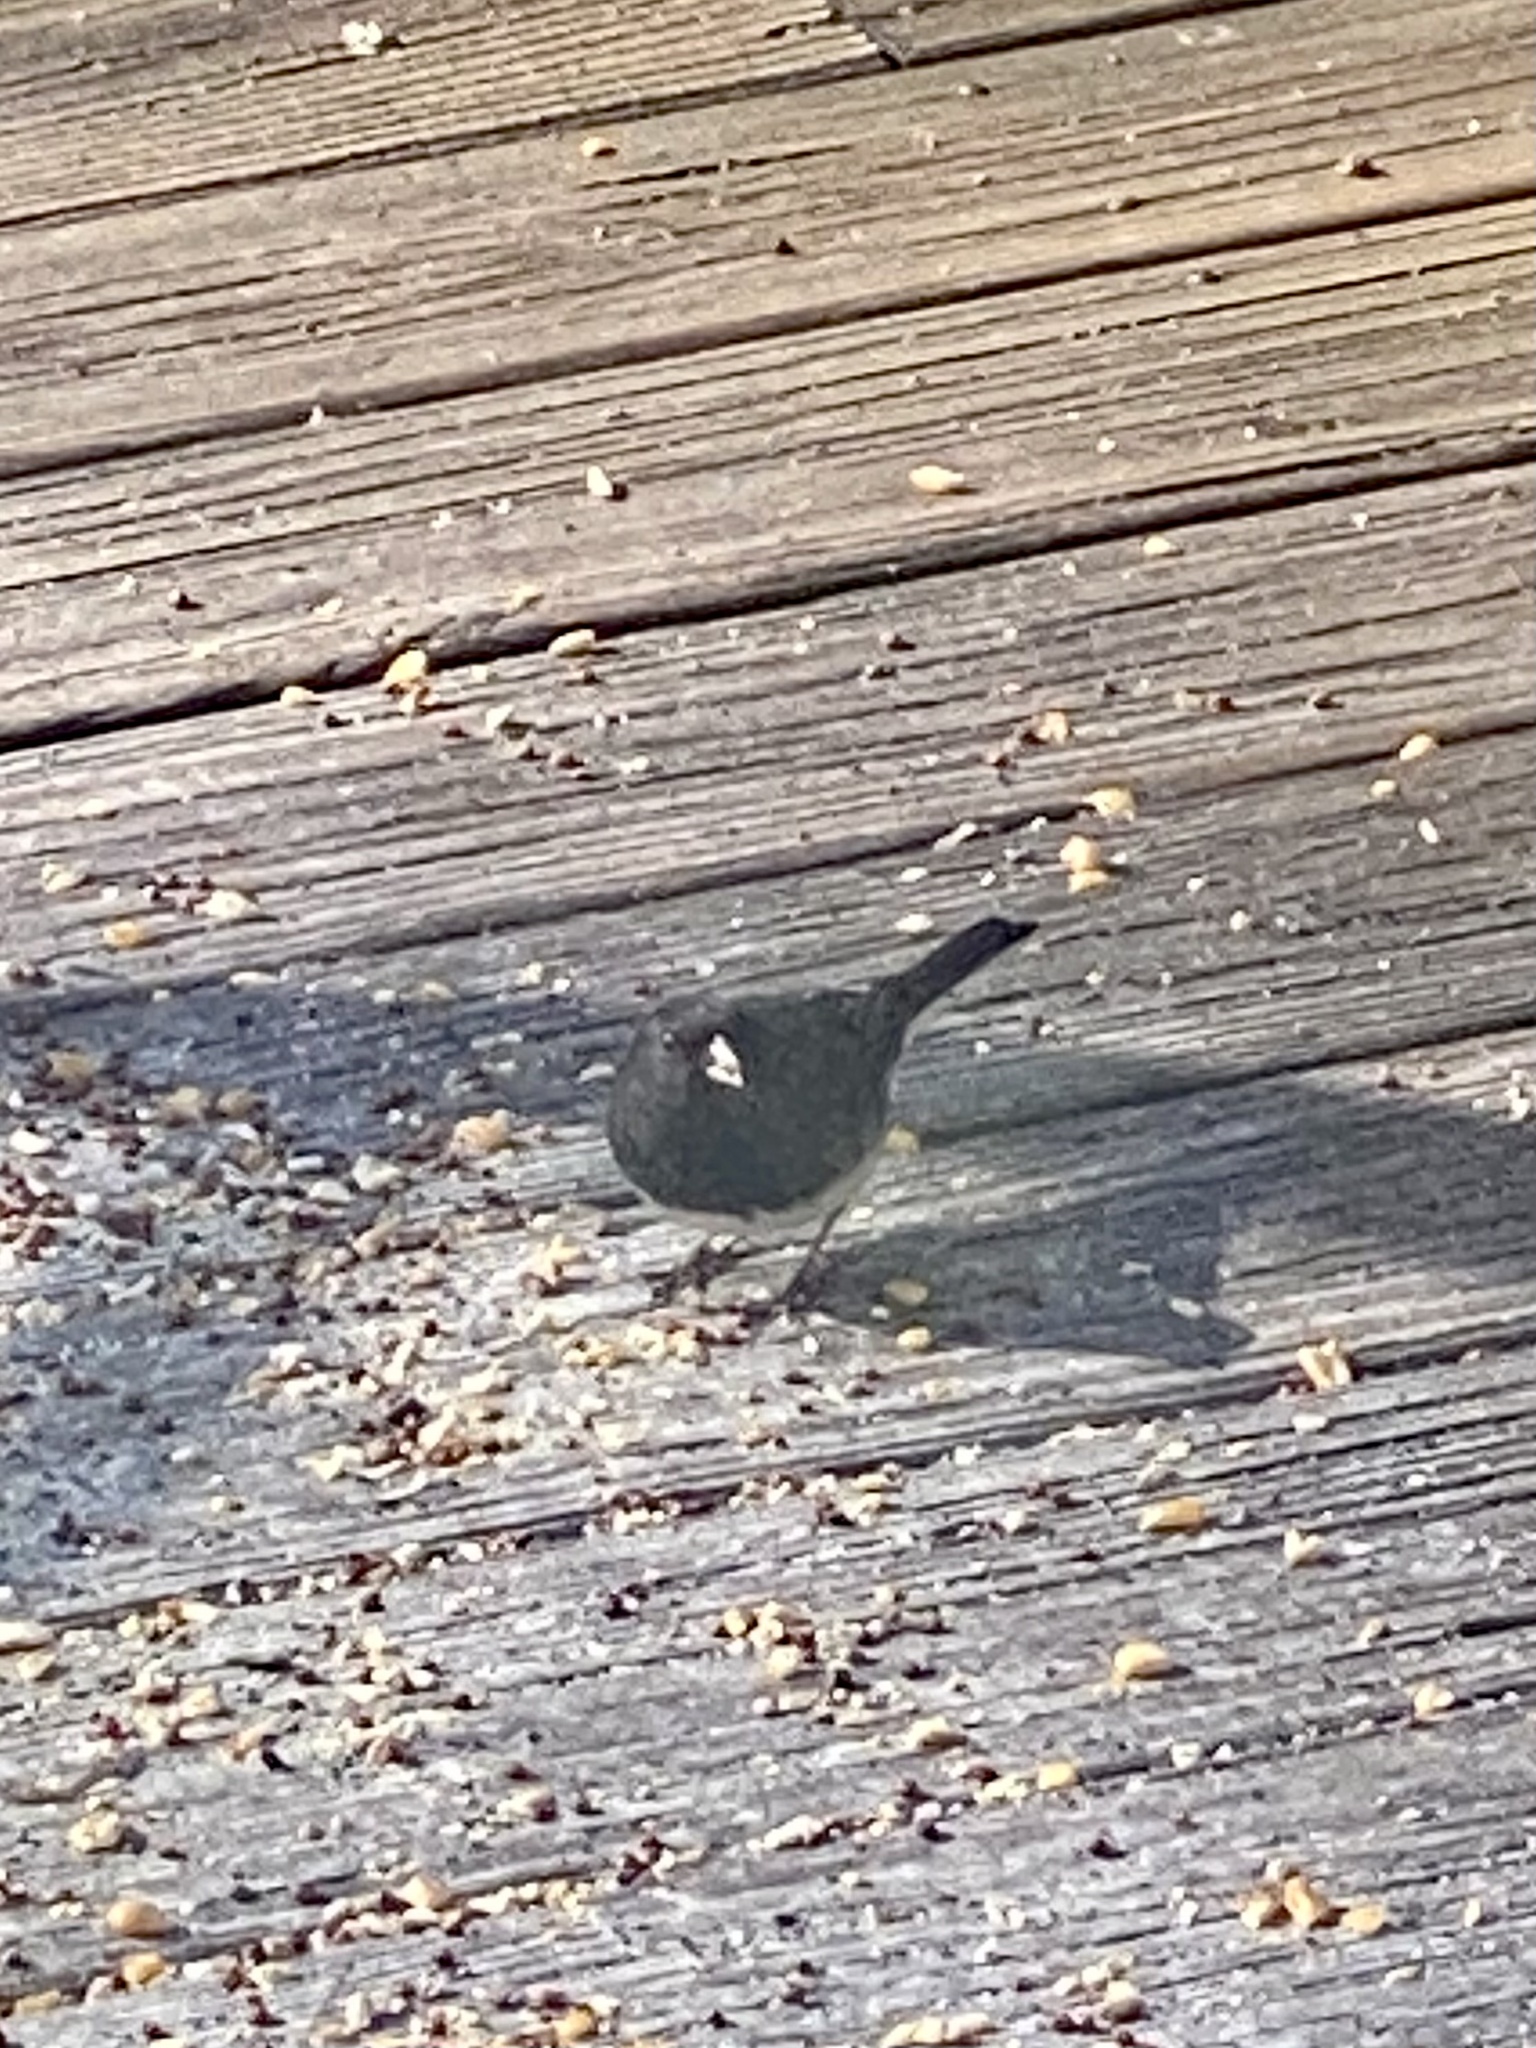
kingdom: Animalia
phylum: Chordata
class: Aves
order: Passeriformes
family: Passerellidae
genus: Junco
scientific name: Junco hyemalis
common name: Dark-eyed junco
